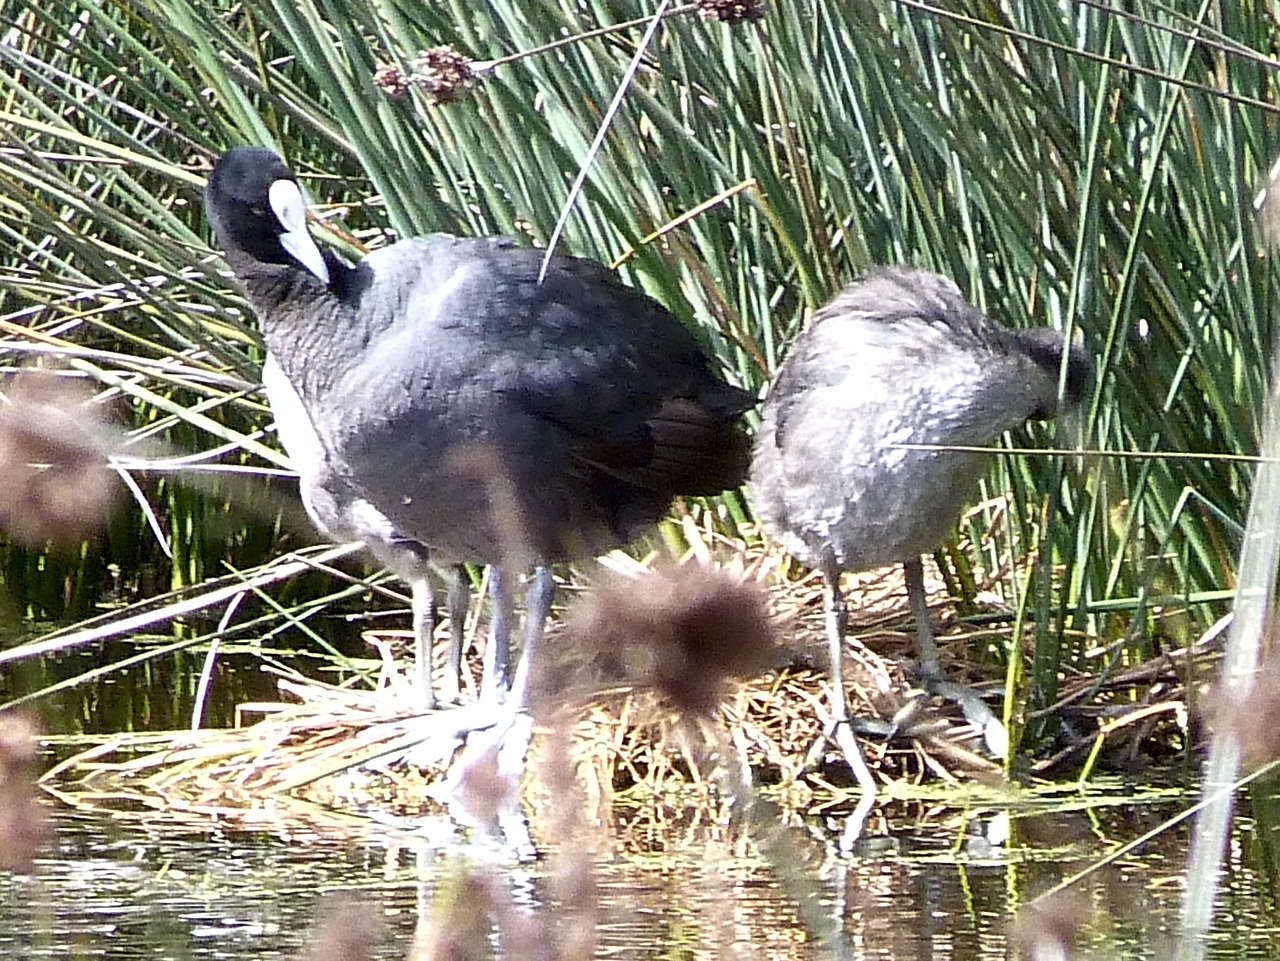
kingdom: Animalia
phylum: Chordata
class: Aves
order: Gruiformes
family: Rallidae
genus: Fulica
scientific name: Fulica atra
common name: Eurasian coot
